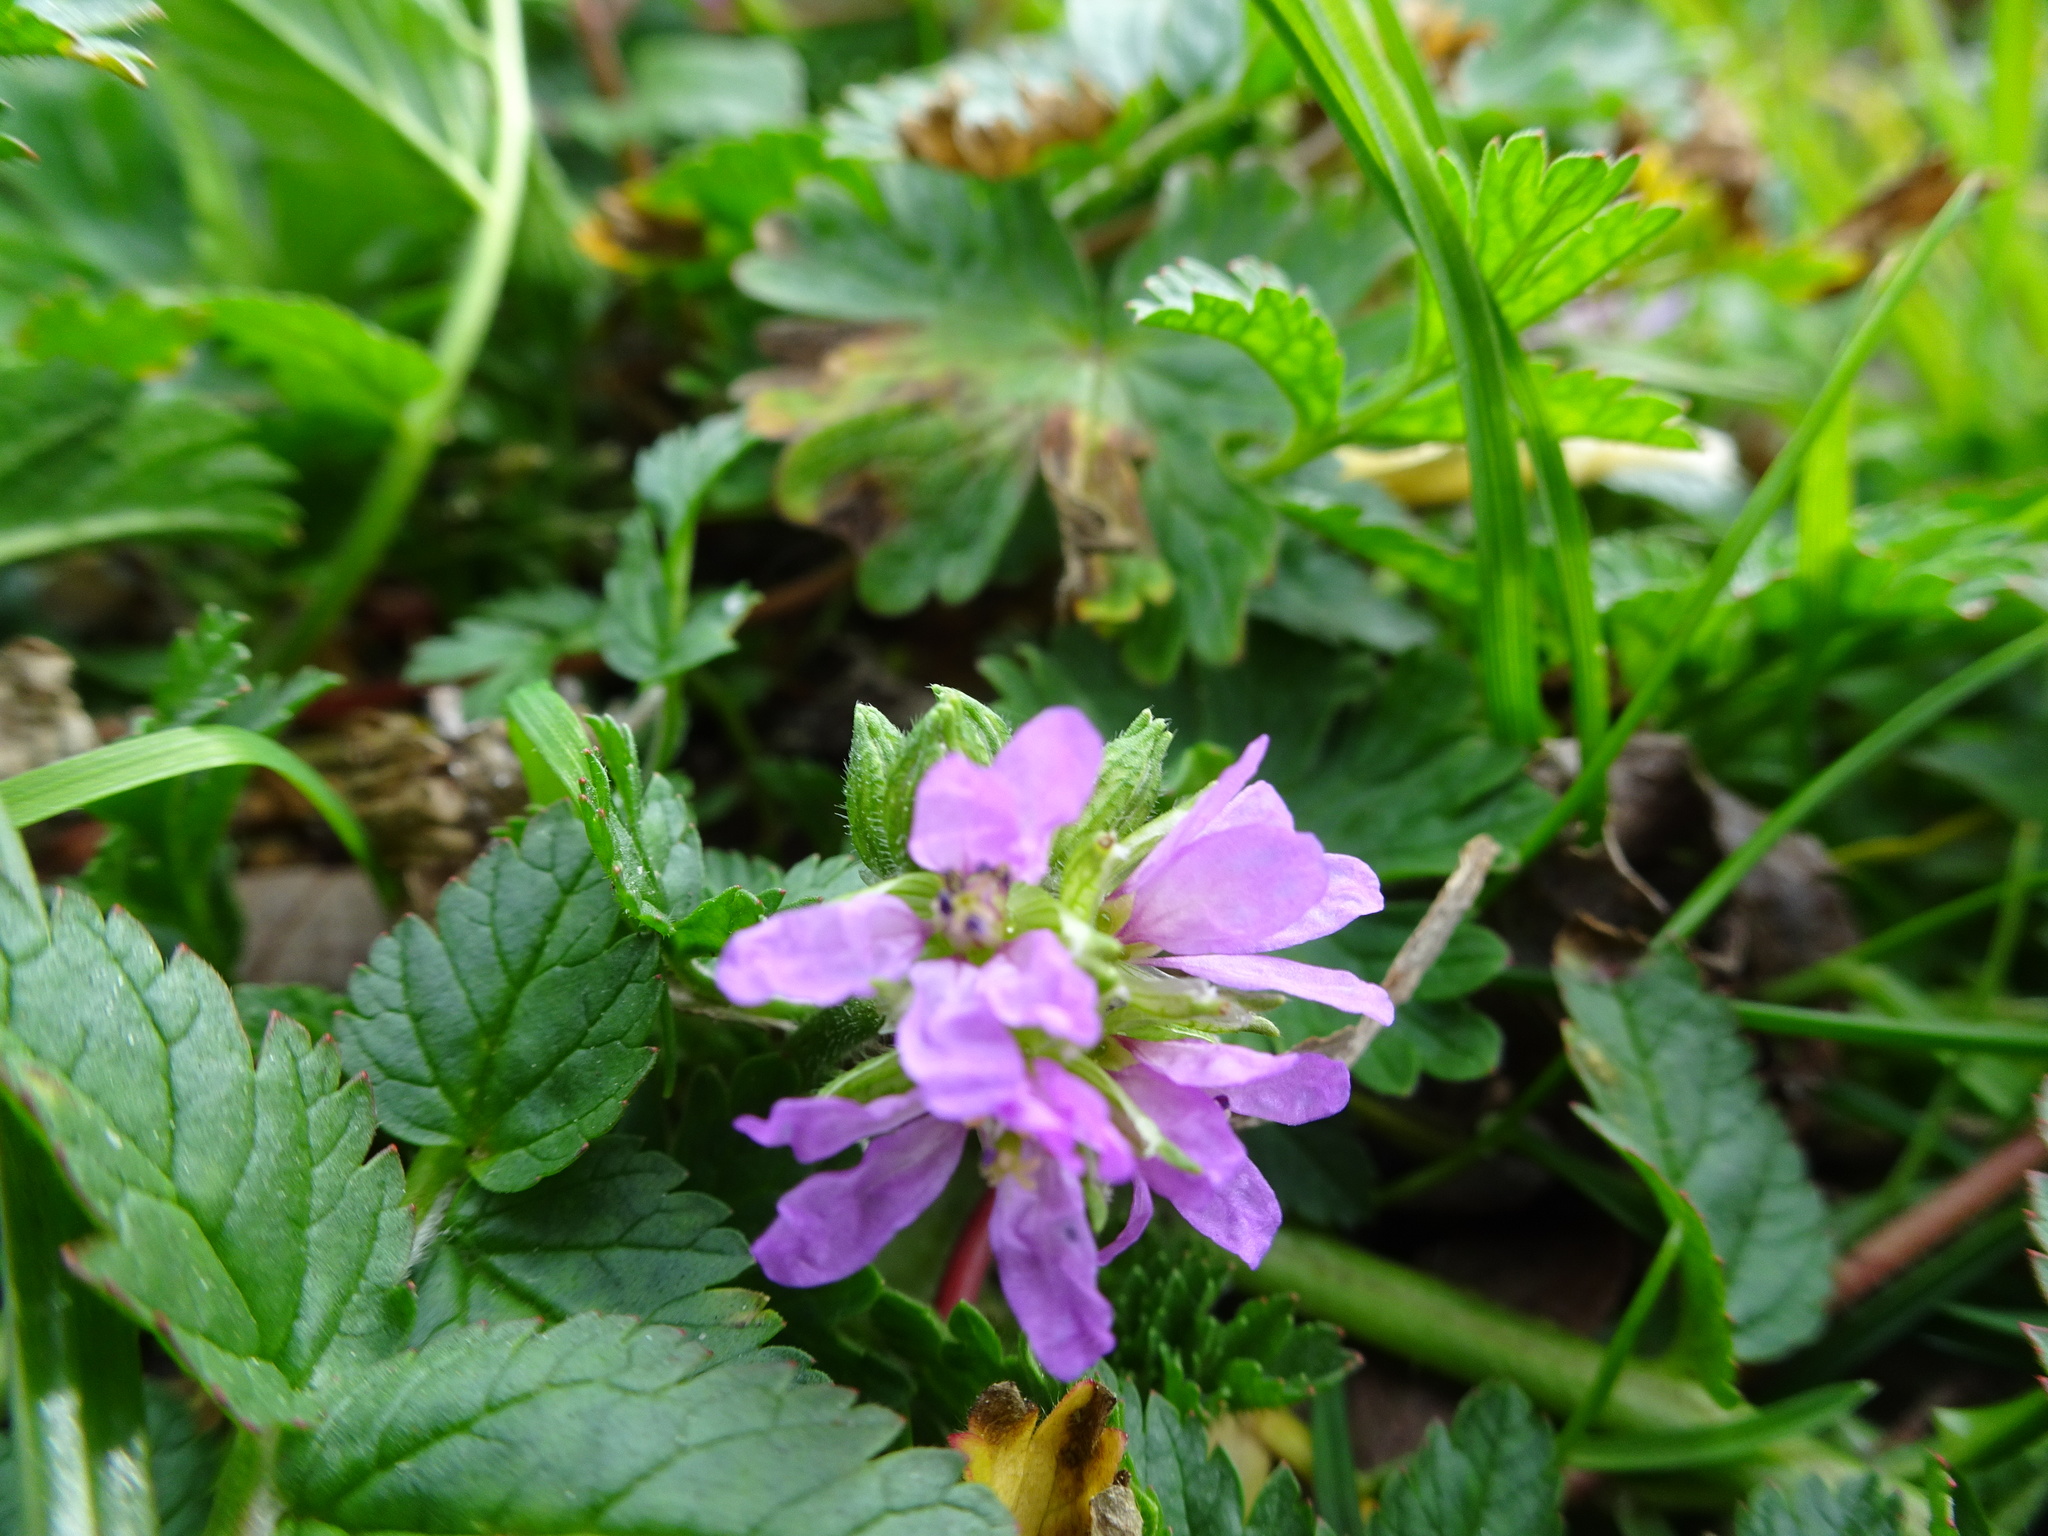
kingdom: Plantae
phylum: Tracheophyta
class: Magnoliopsida
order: Geraniales
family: Geraniaceae
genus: Erodium
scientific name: Erodium moschatum
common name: Musk stork's-bill
